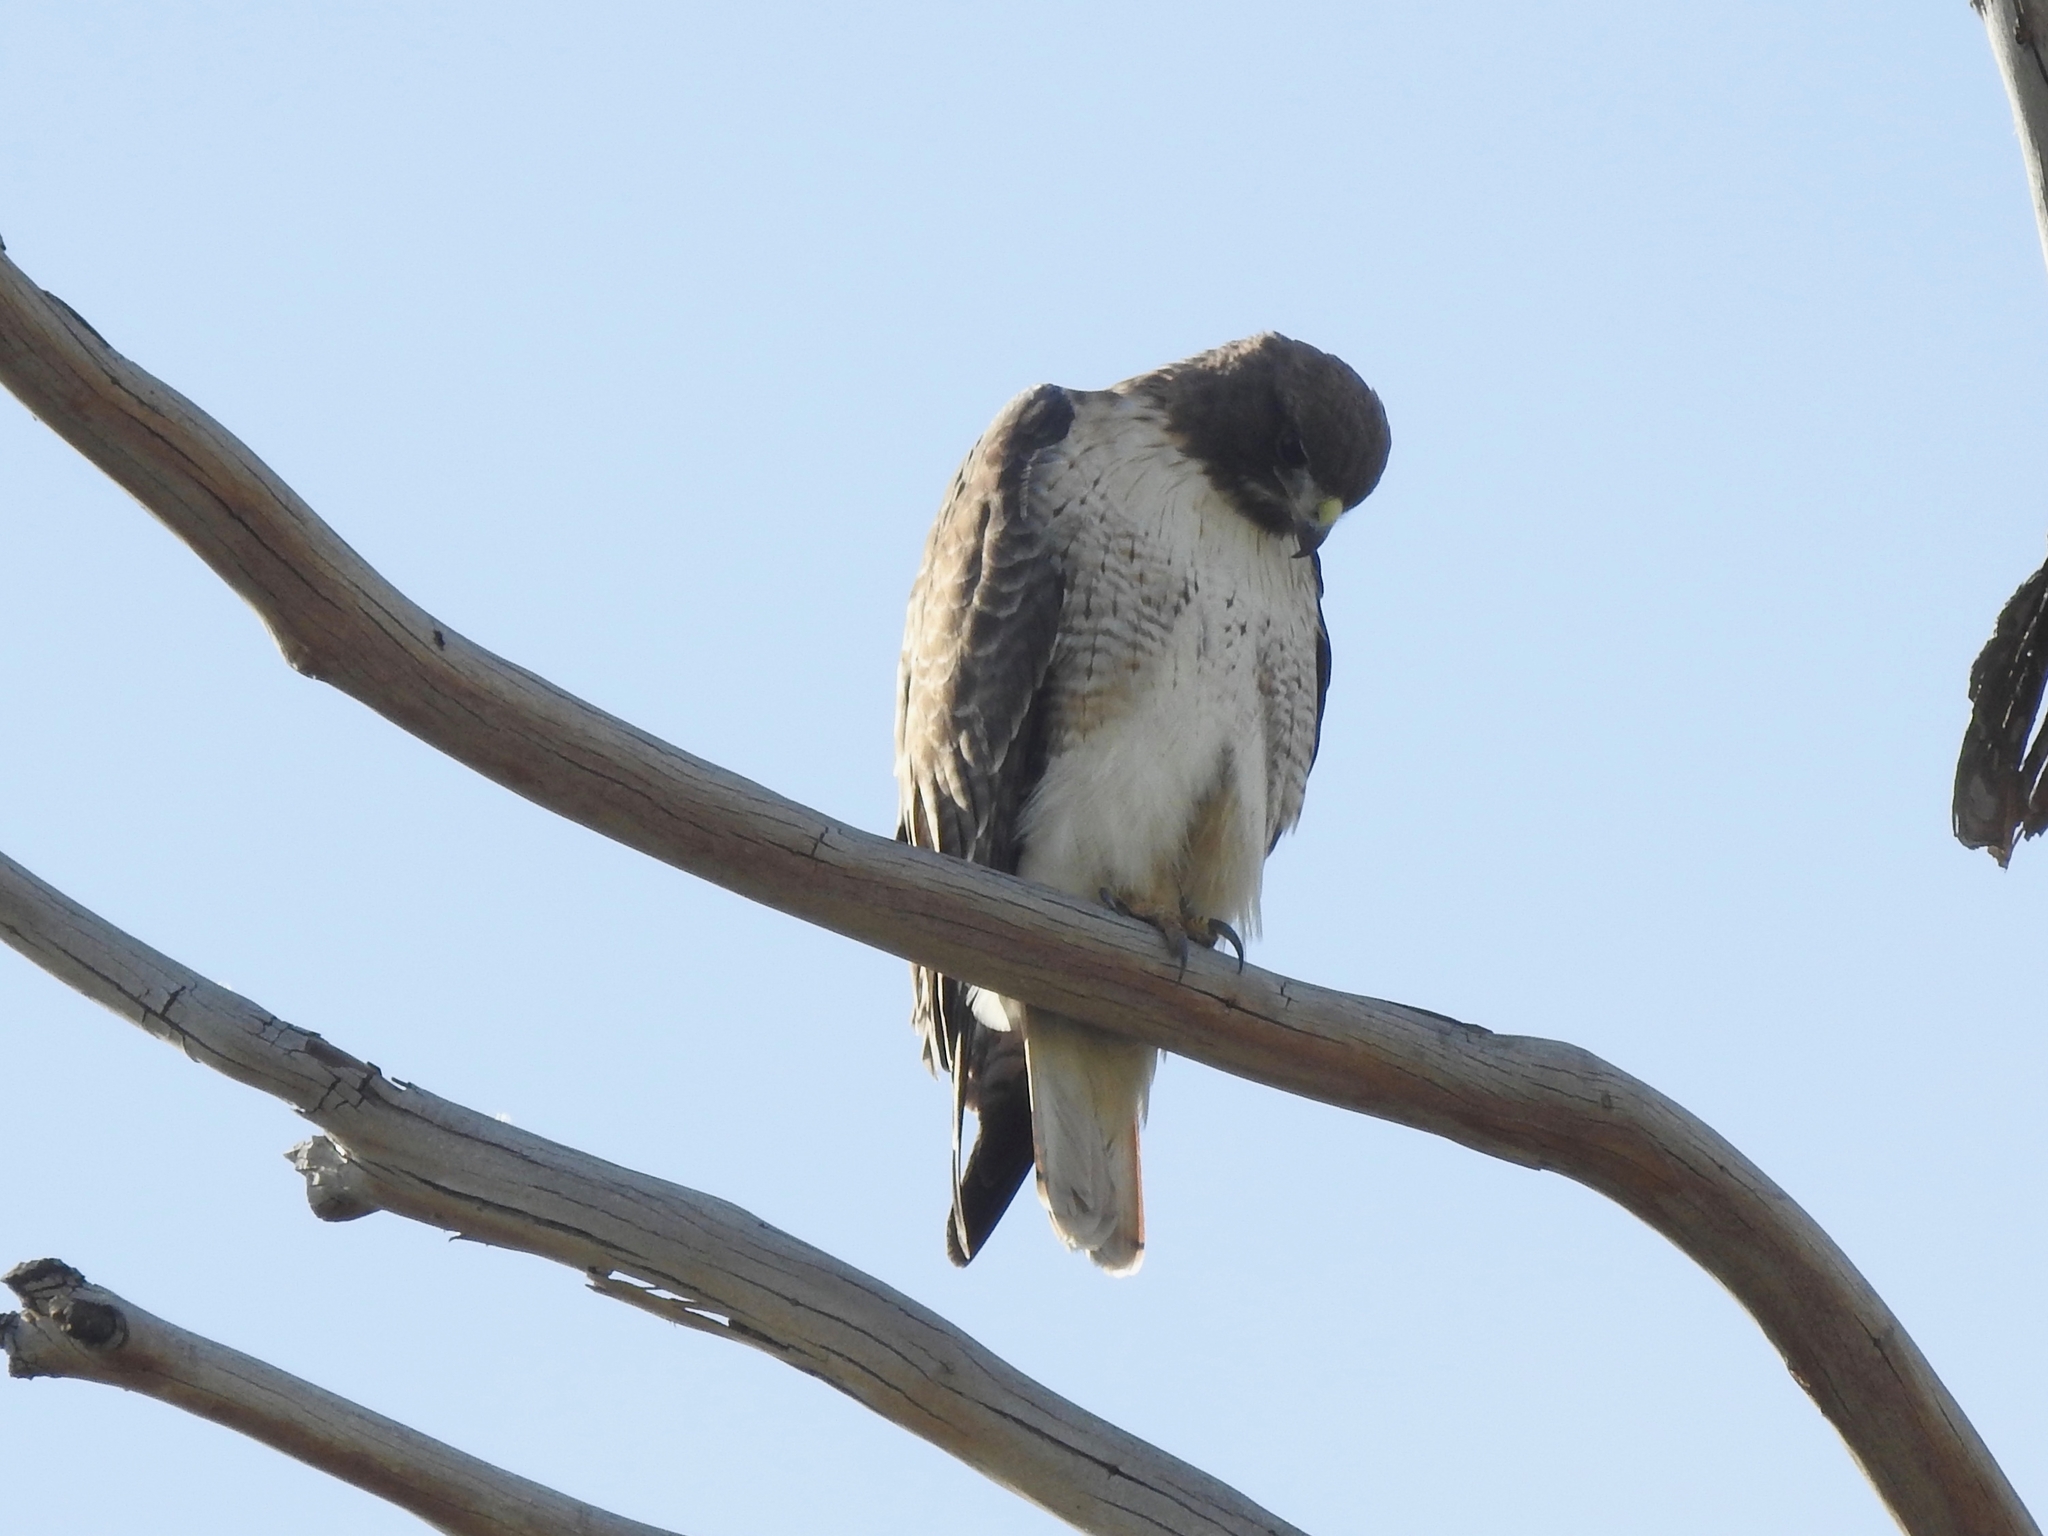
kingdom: Animalia
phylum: Chordata
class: Aves
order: Accipitriformes
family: Accipitridae
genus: Buteo
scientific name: Buteo jamaicensis
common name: Red-tailed hawk
